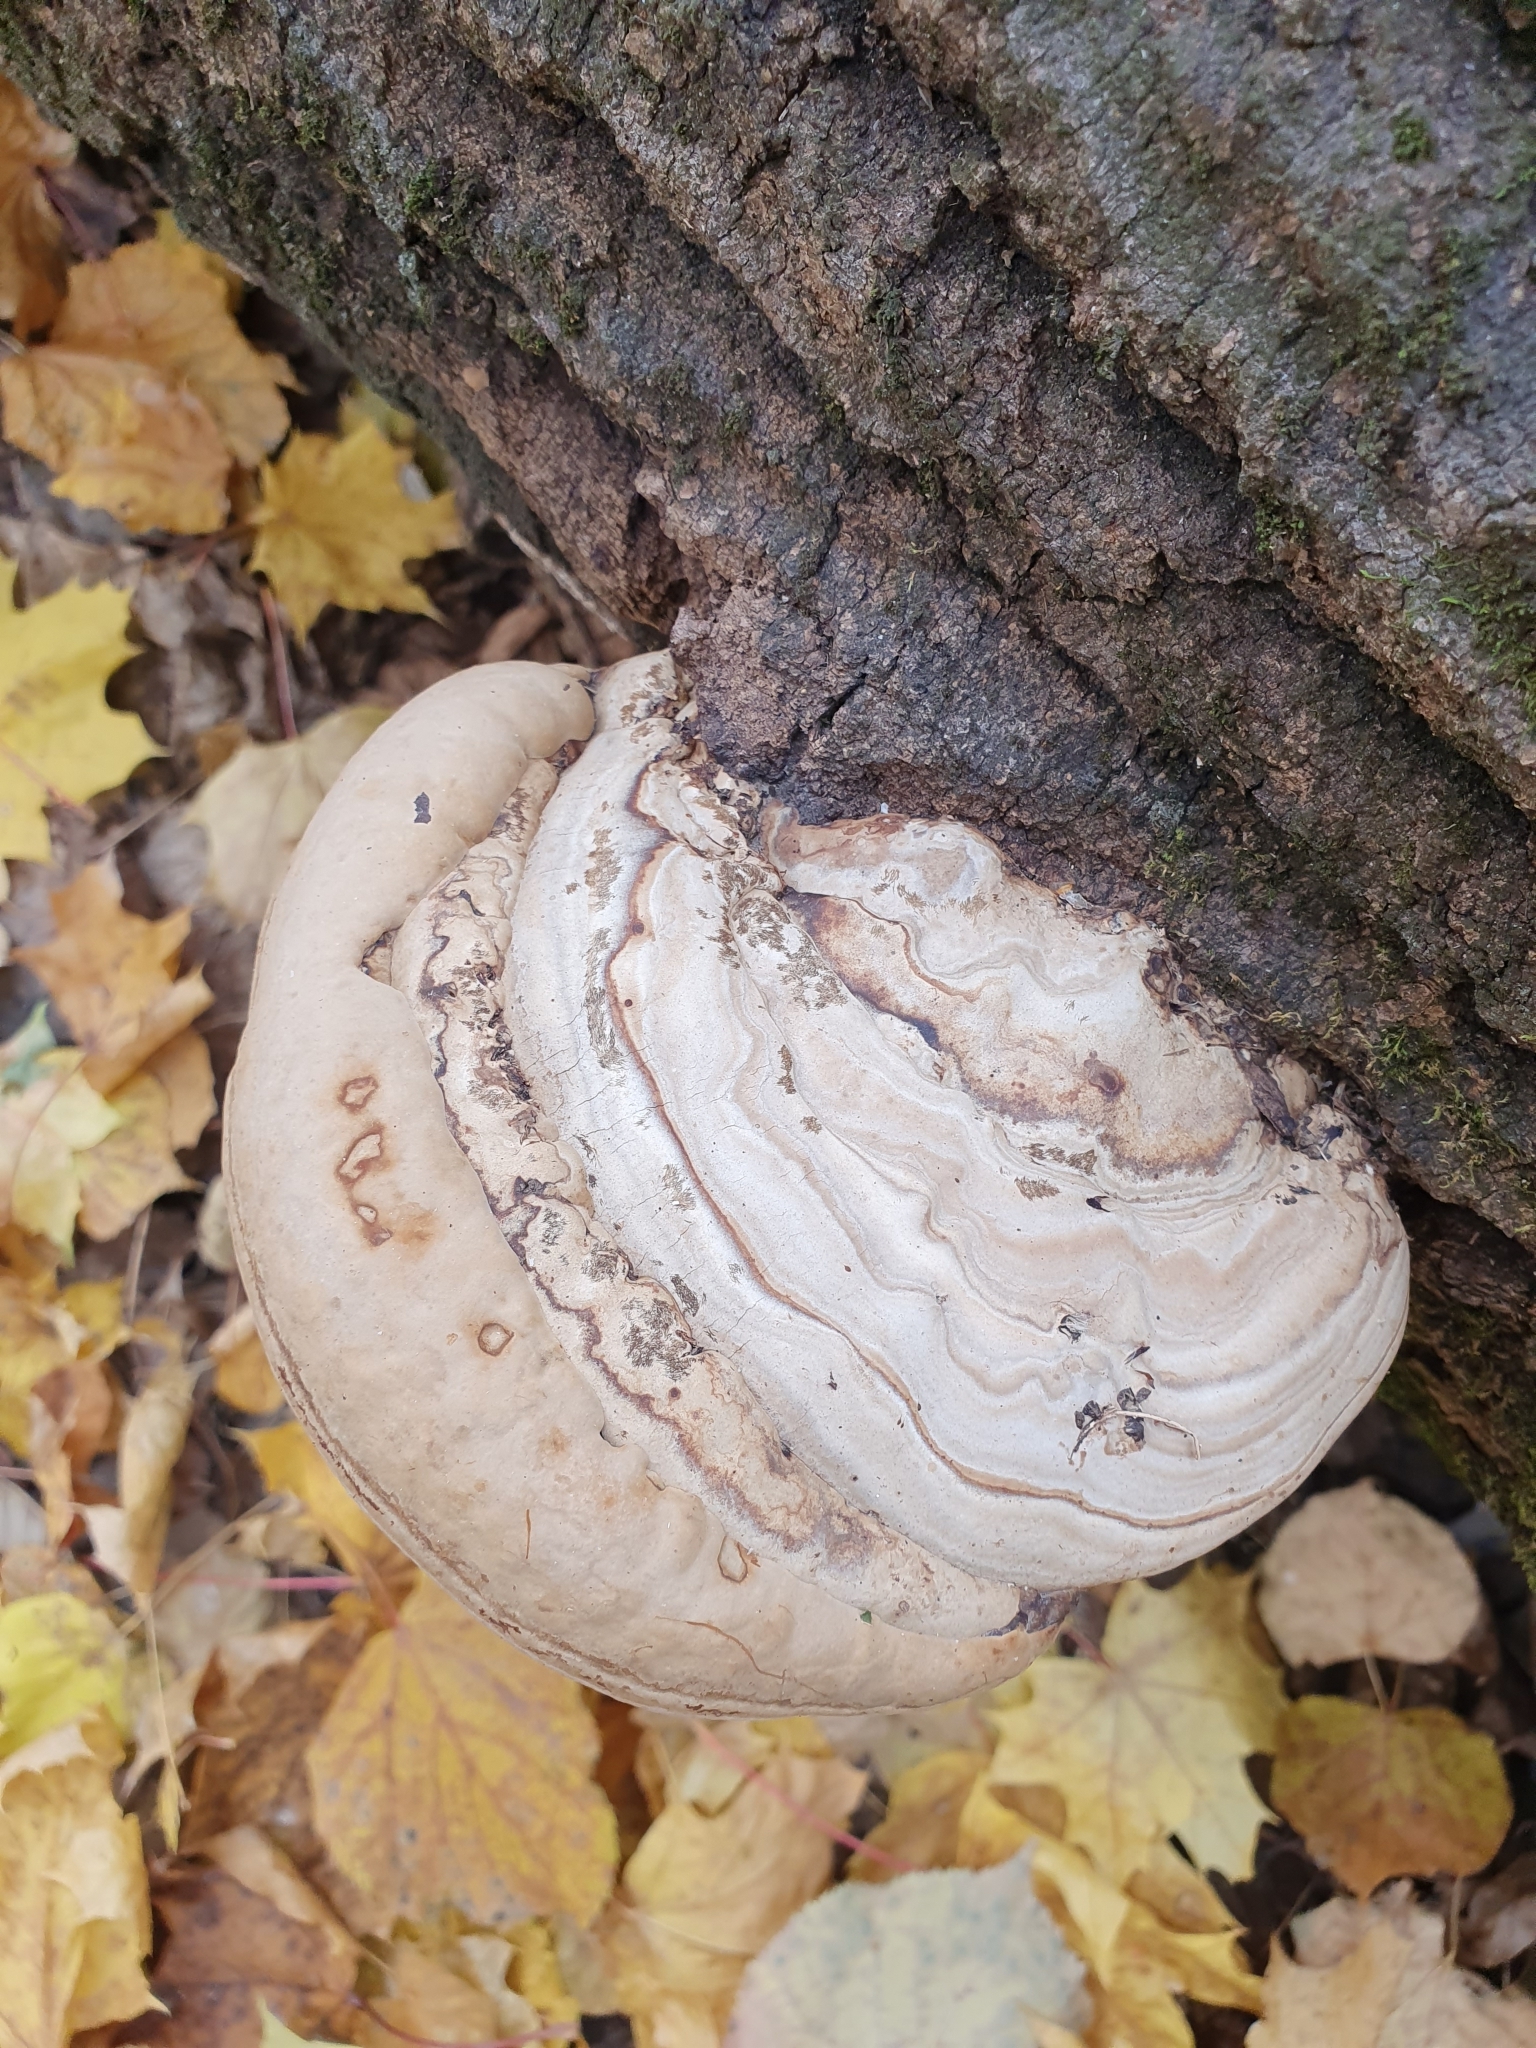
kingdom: Fungi
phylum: Basidiomycota
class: Agaricomycetes
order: Polyporales
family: Polyporaceae
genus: Fomes
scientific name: Fomes fomentarius
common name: Hoof fungus
